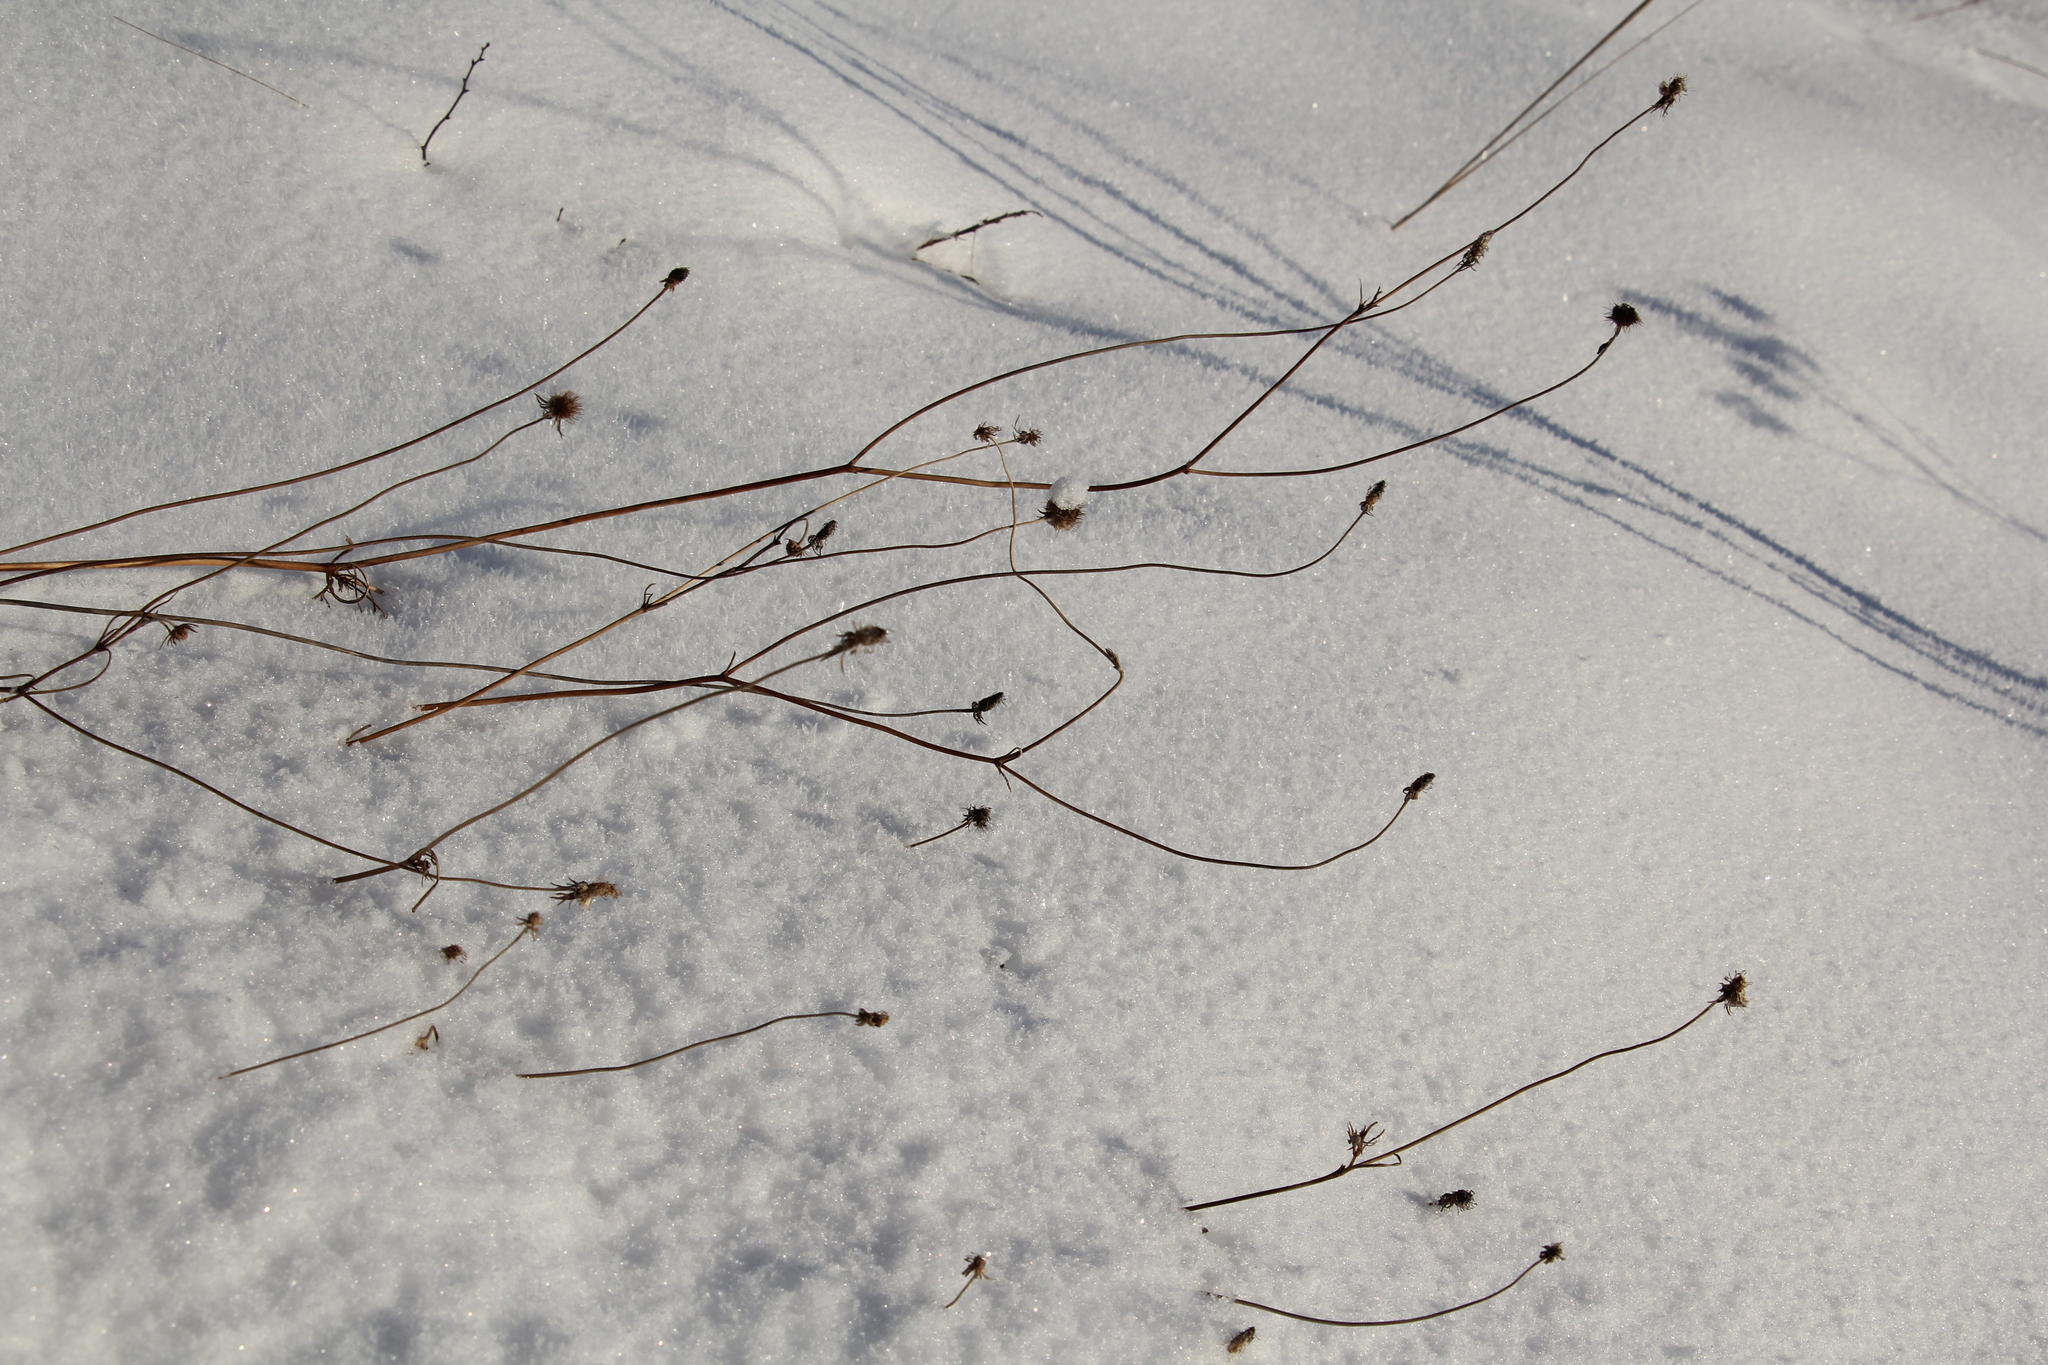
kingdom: Plantae
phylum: Tracheophyta
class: Magnoliopsida
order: Dipsacales
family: Caprifoliaceae
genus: Scabiosa
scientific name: Scabiosa ochroleuca
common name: Cream pincushions
